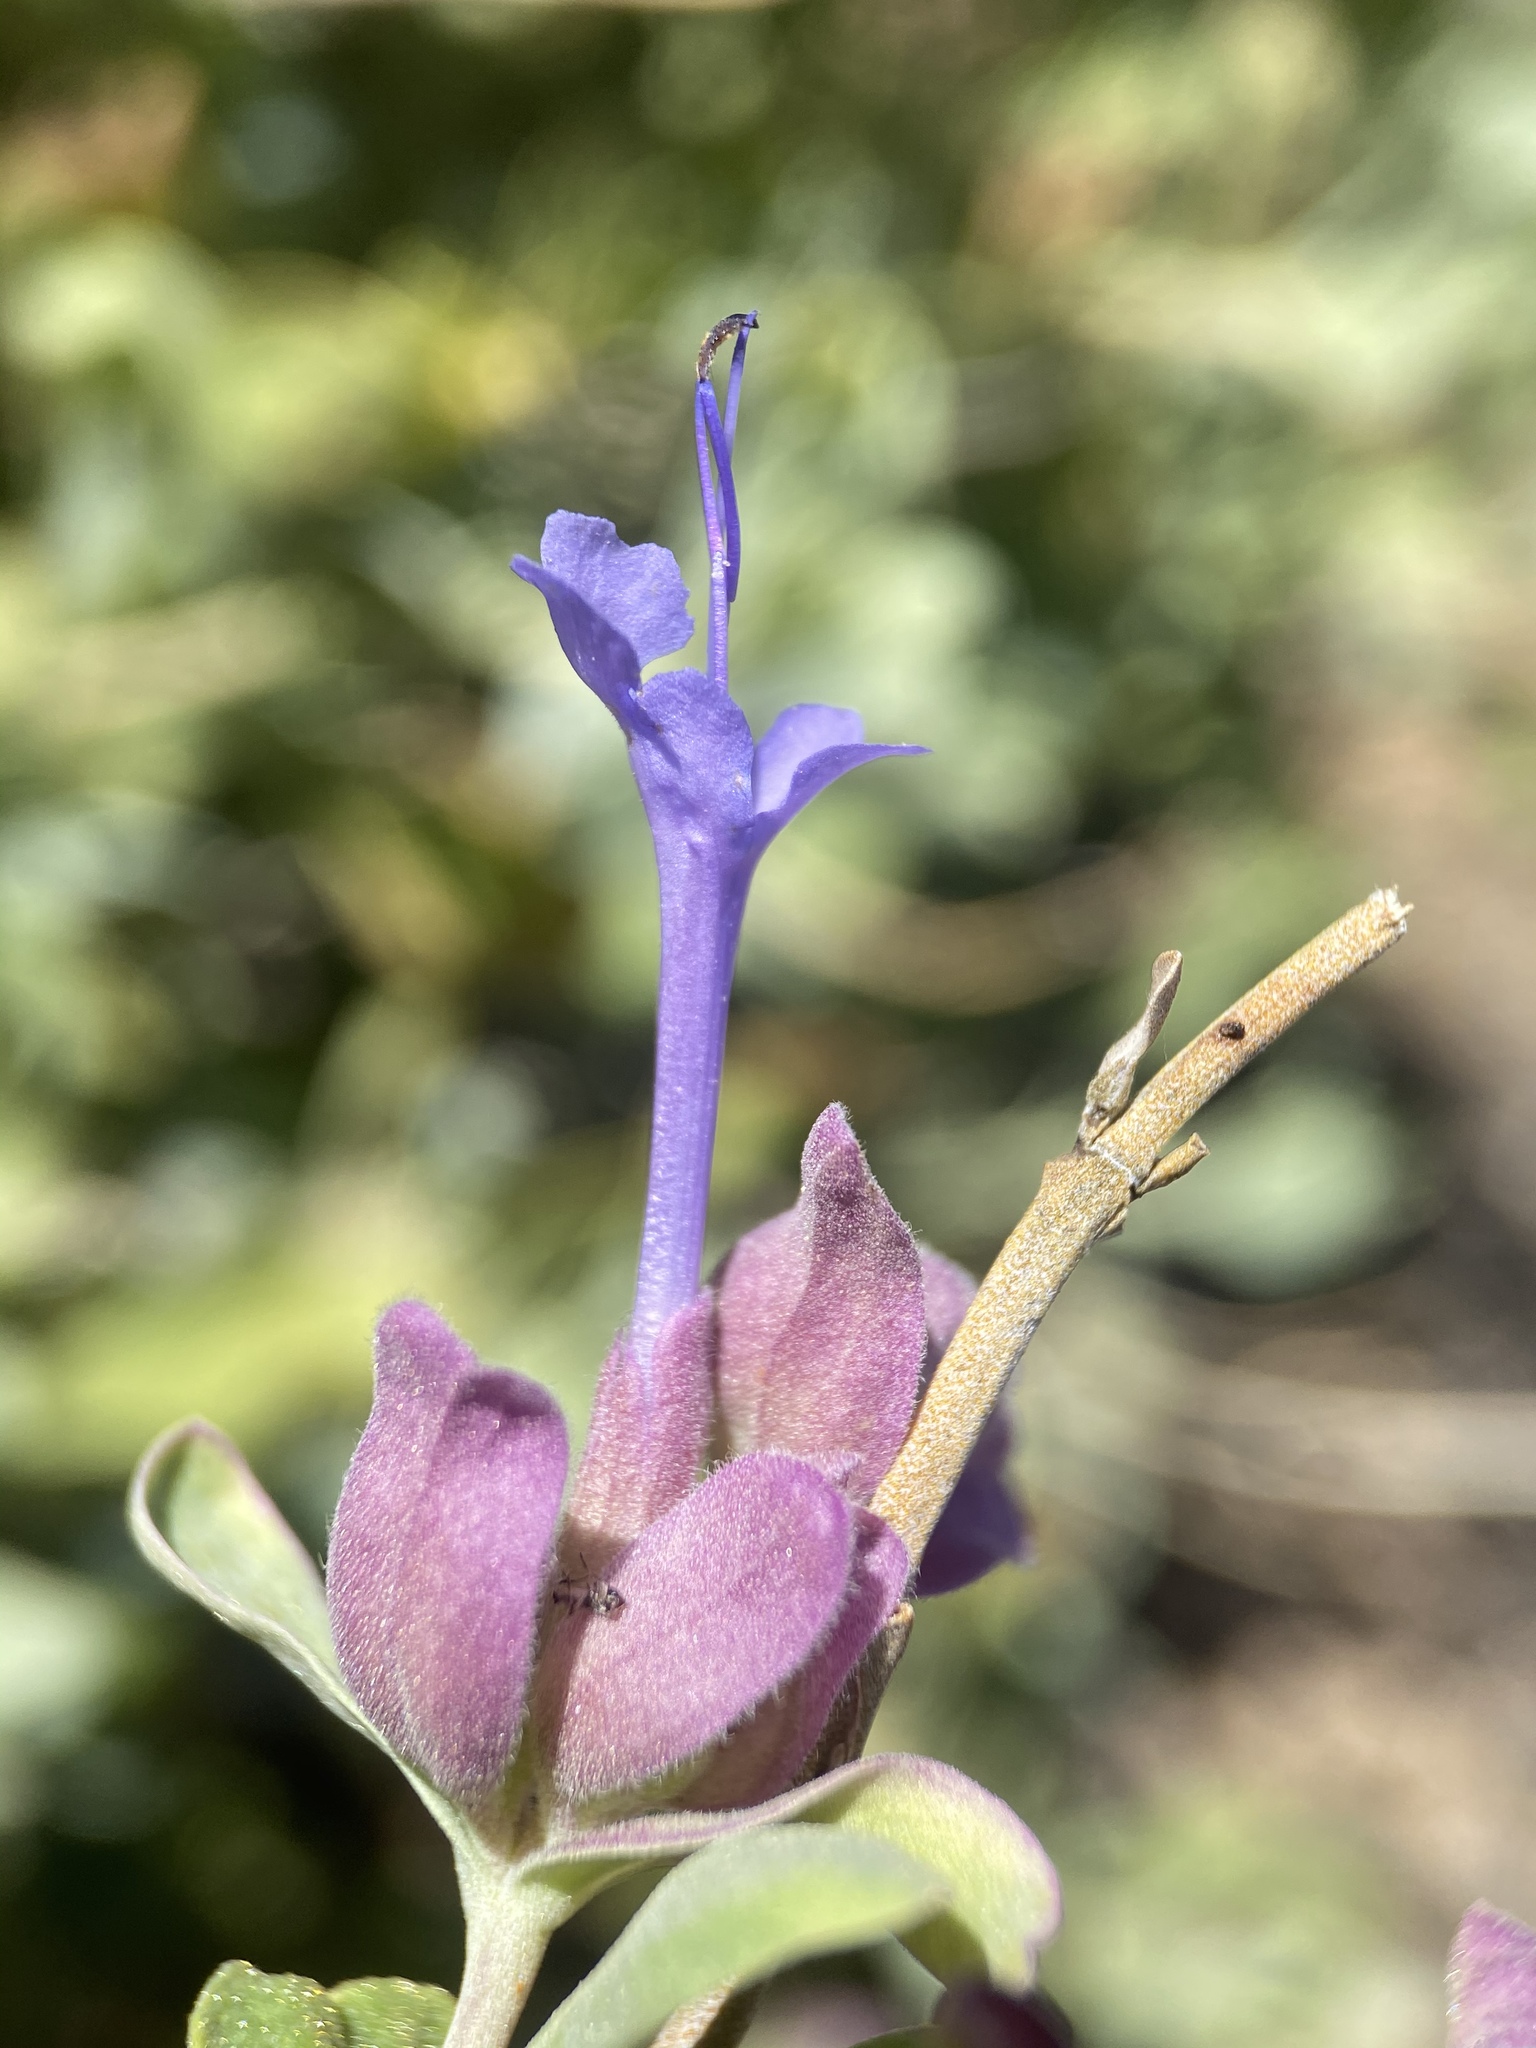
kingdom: Plantae
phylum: Tracheophyta
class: Magnoliopsida
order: Lamiales
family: Lamiaceae
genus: Salvia
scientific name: Salvia pachyphylla
